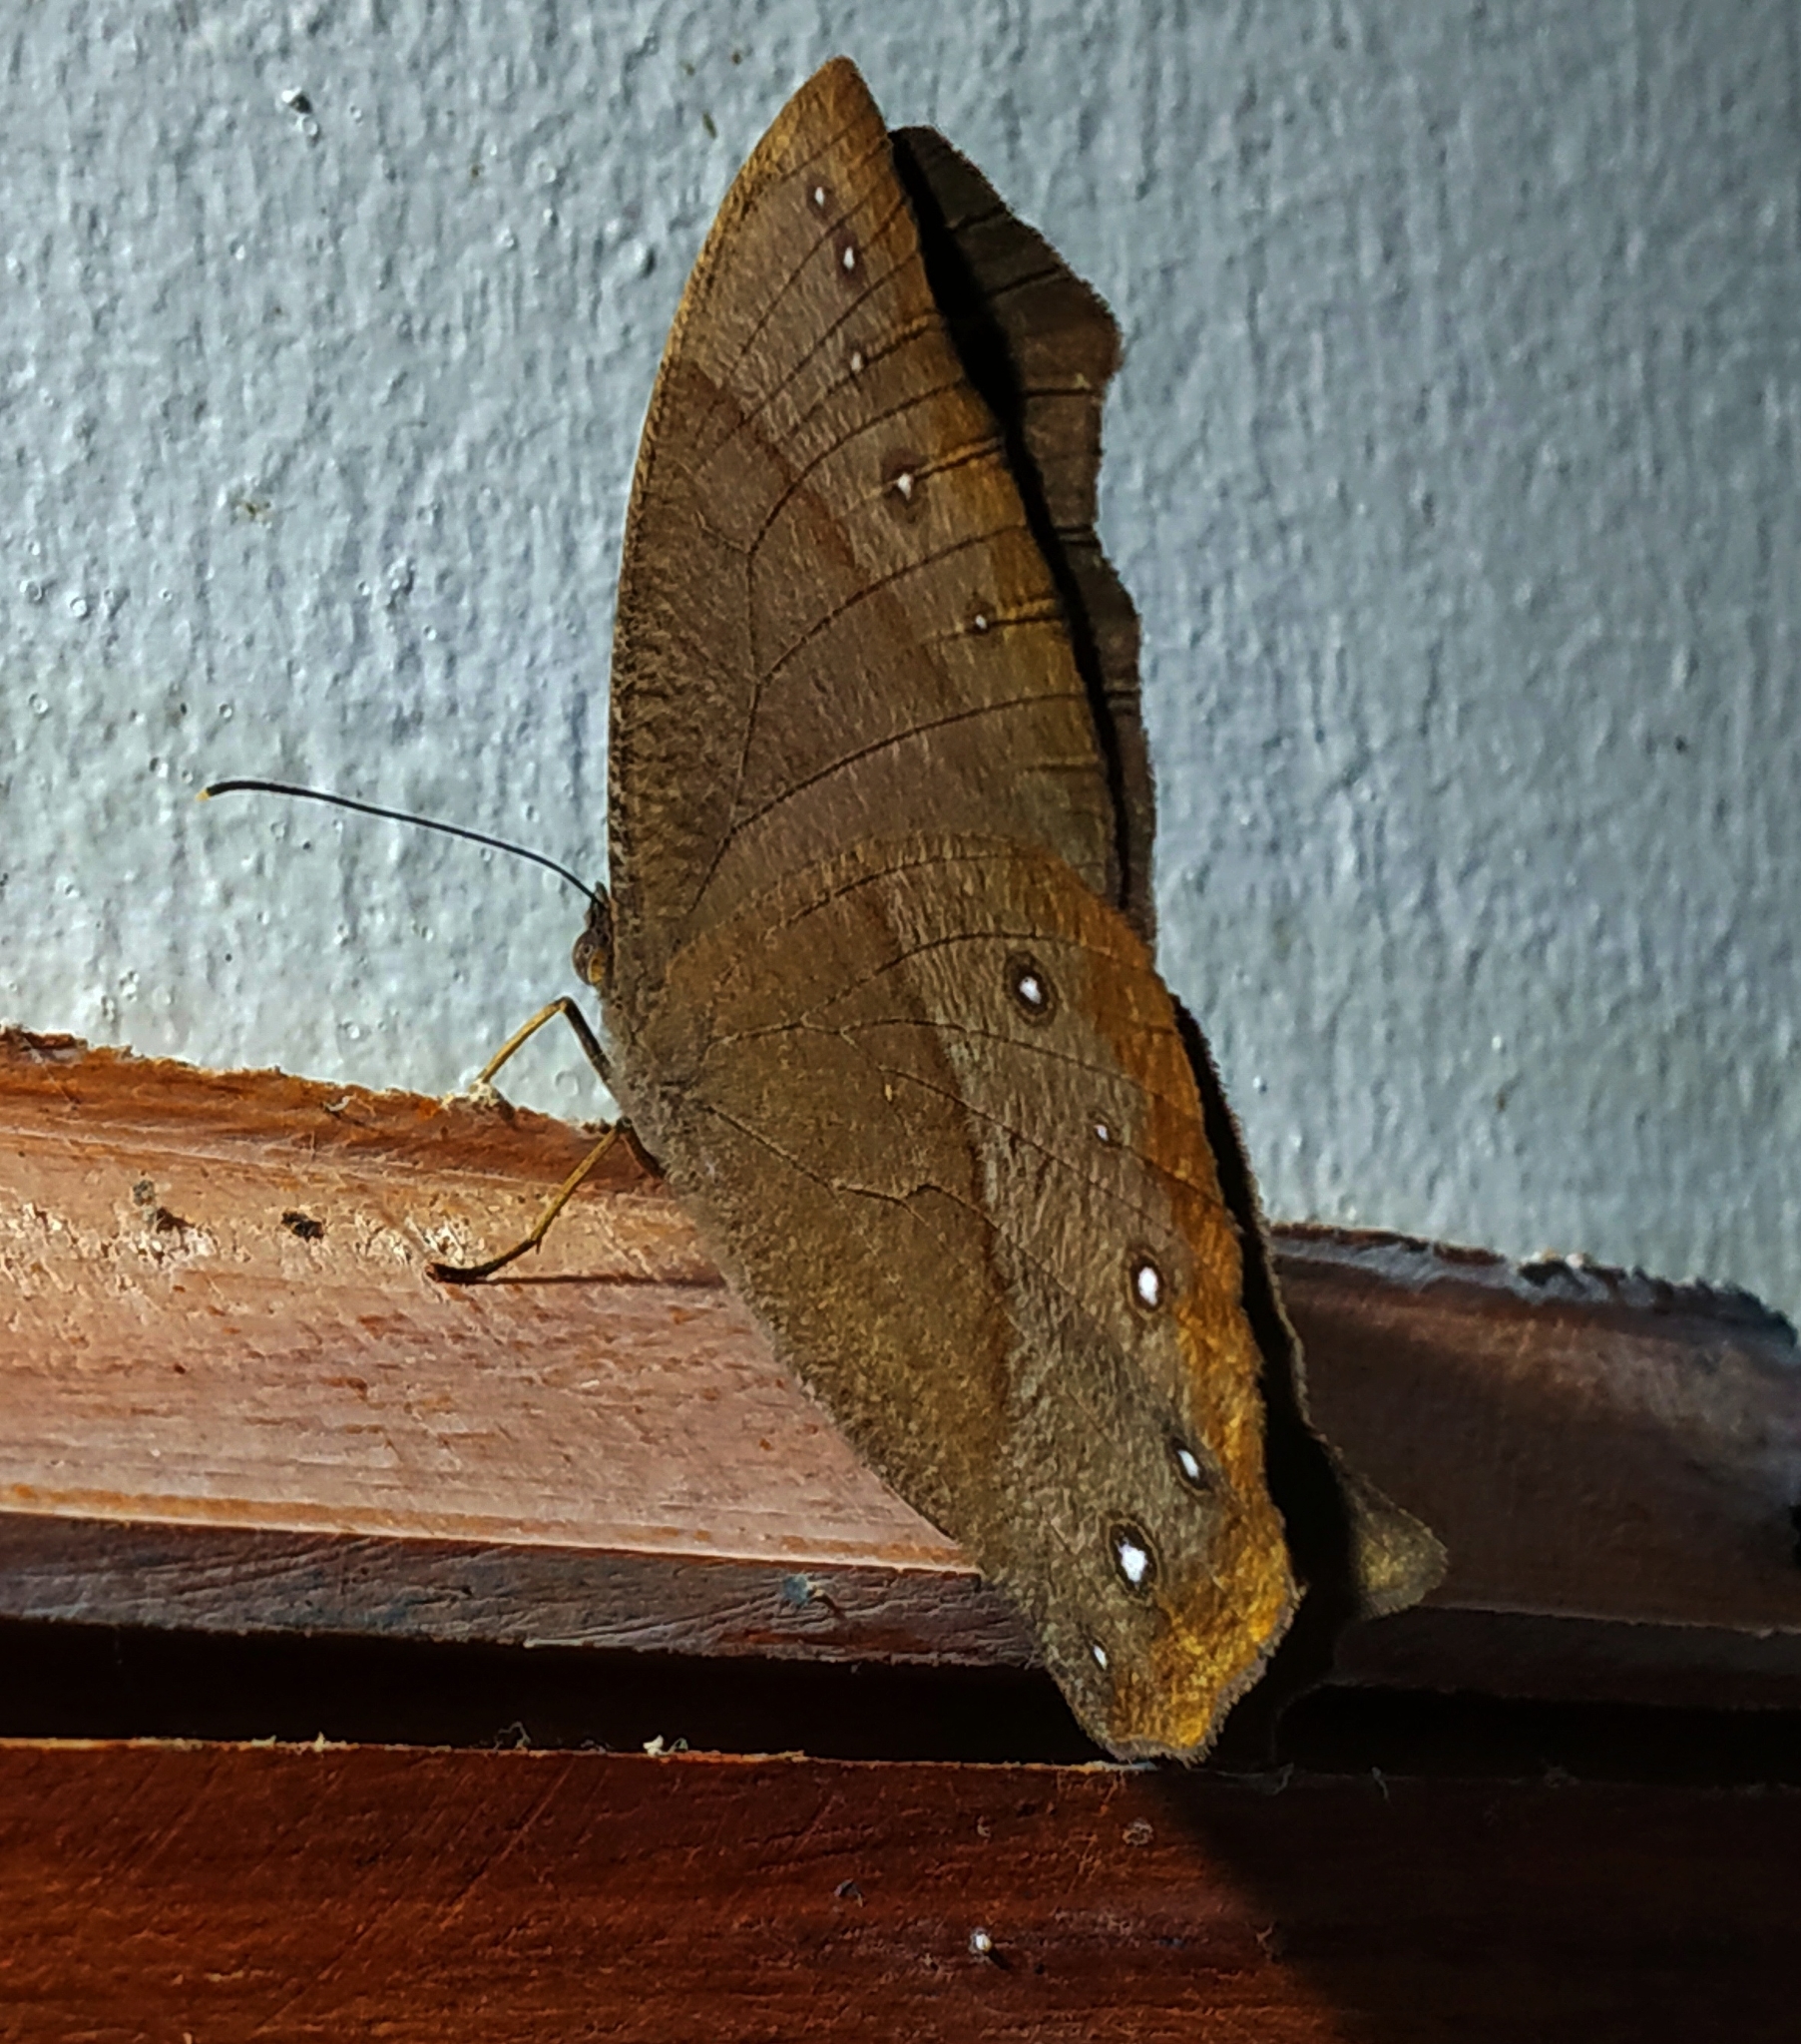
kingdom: Animalia
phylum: Arthropoda
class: Insecta
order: Lepidoptera
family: Nymphalidae
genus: Melanitis
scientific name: Melanitis phedima
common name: Dark evening brown
